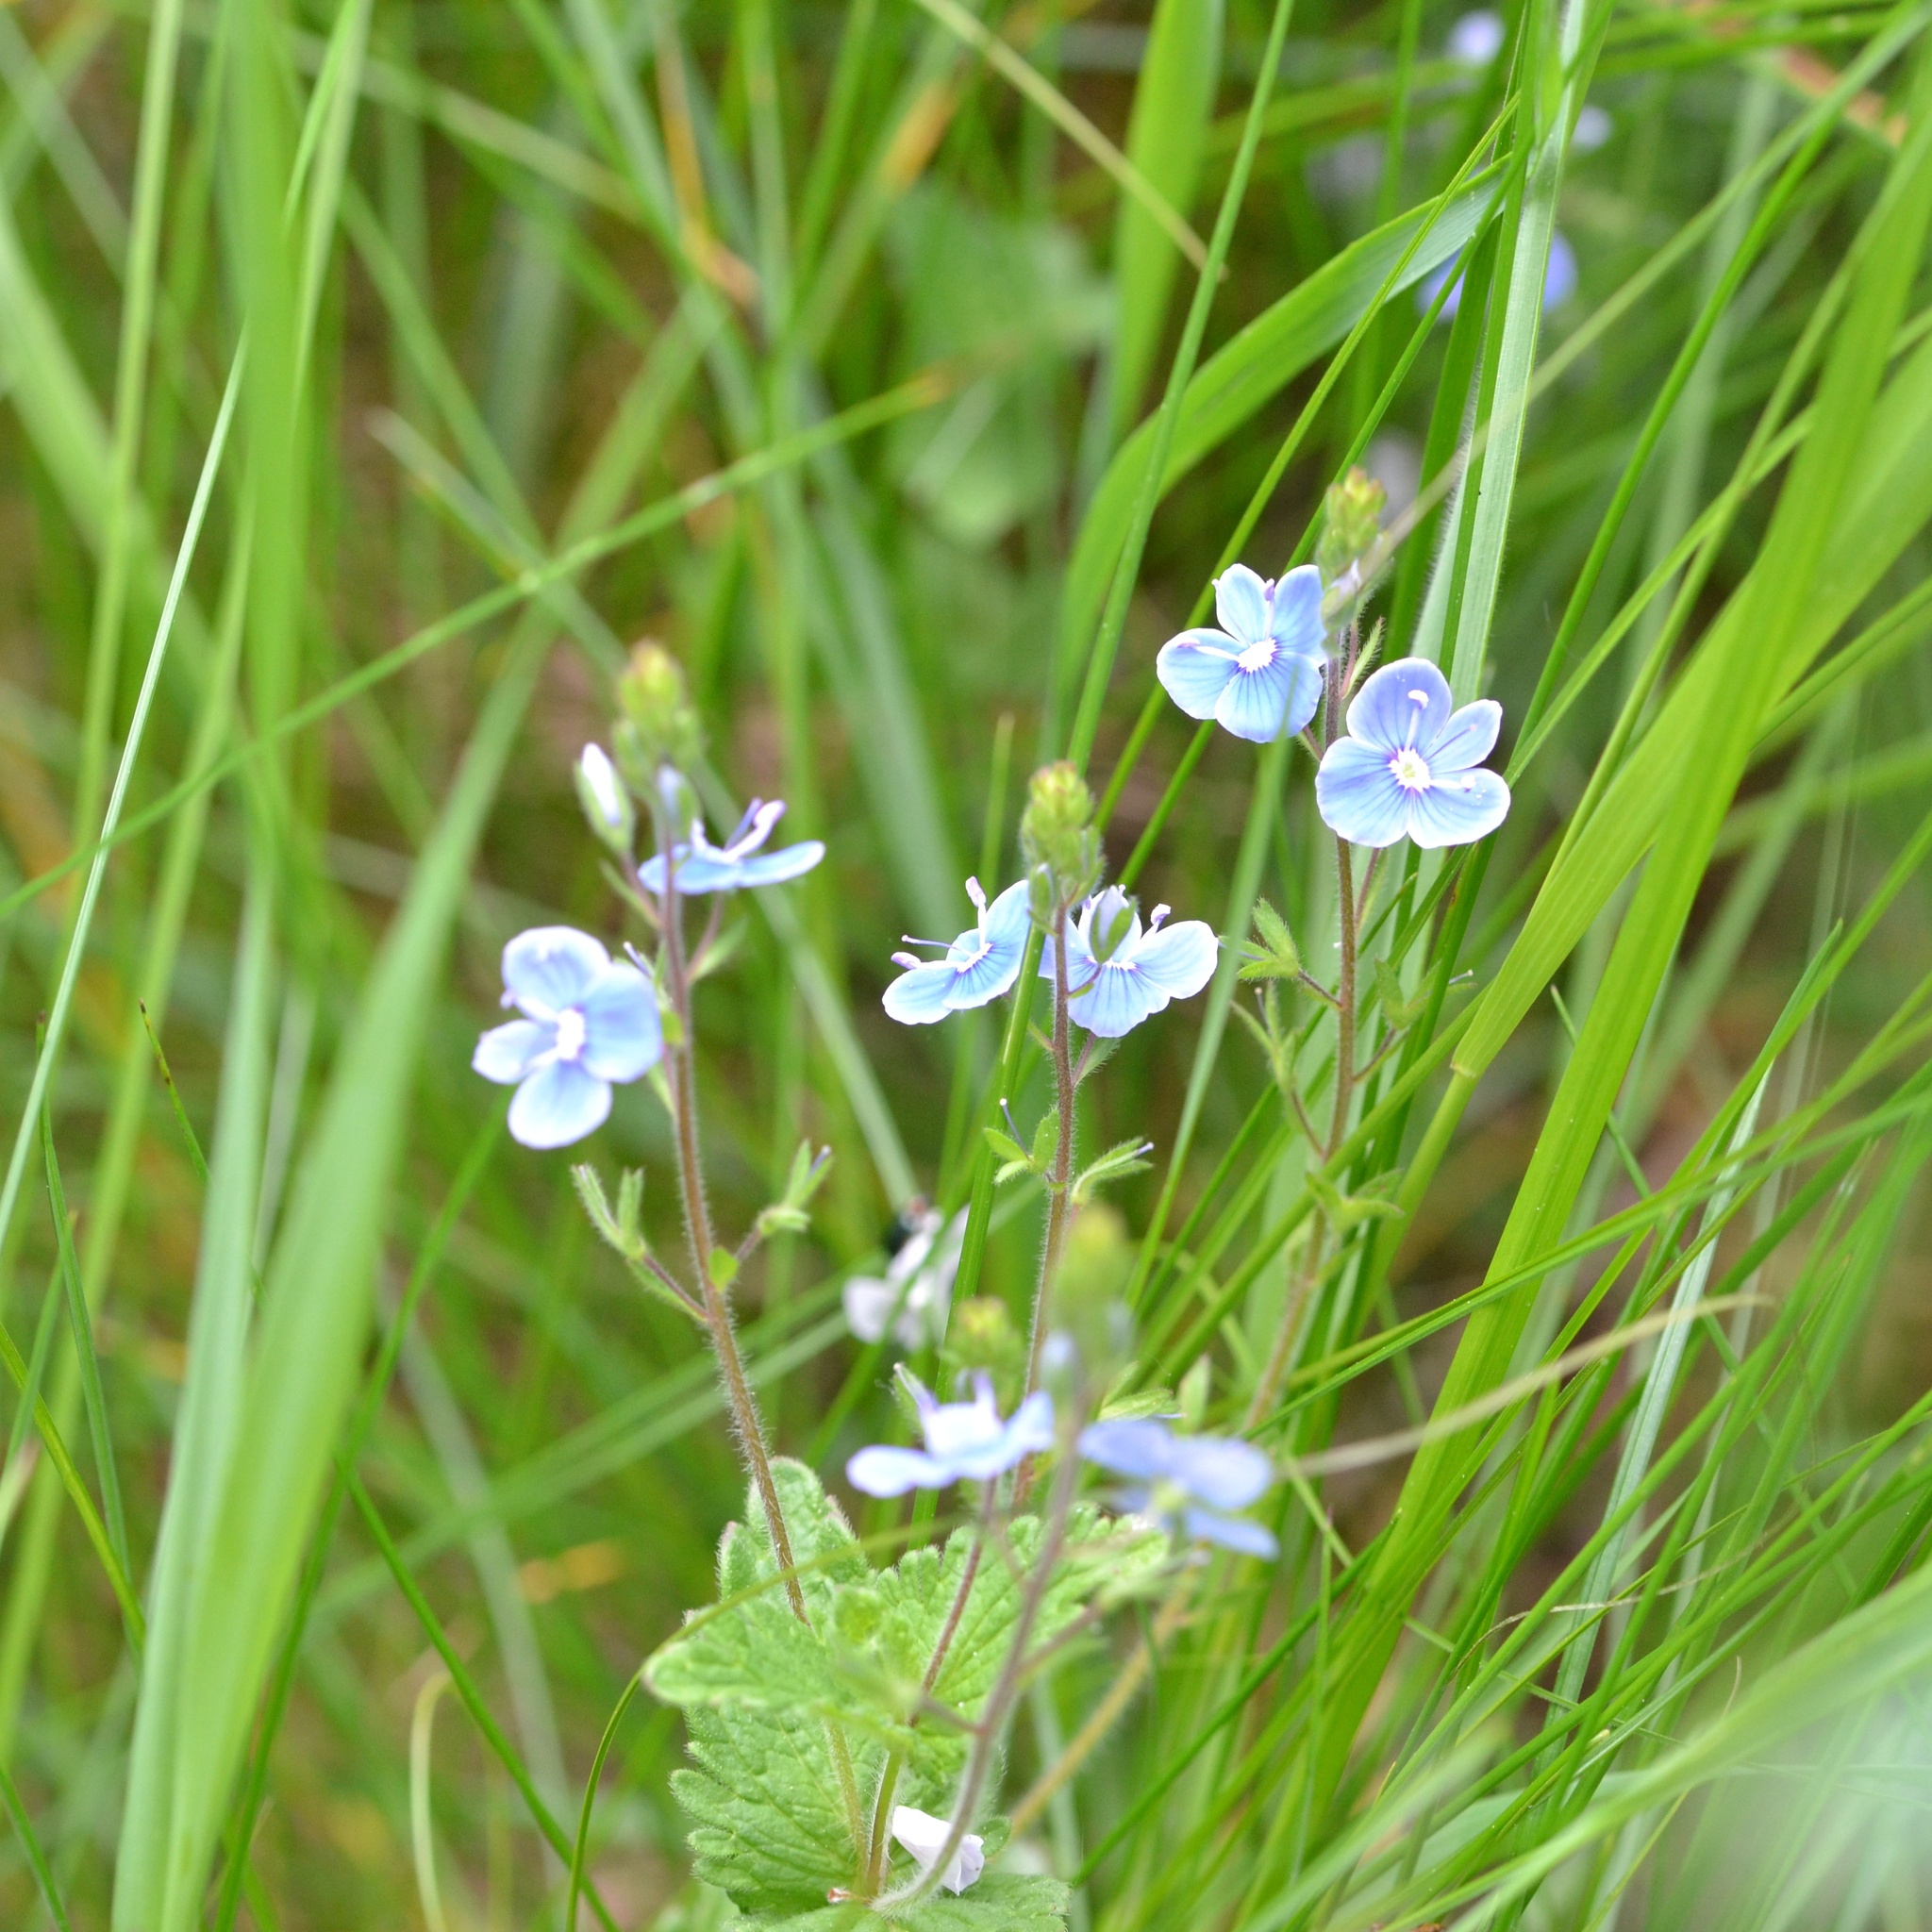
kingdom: Plantae
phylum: Tracheophyta
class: Magnoliopsida
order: Lamiales
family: Plantaginaceae
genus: Veronica
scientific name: Veronica chamaedrys
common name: Germander speedwell
